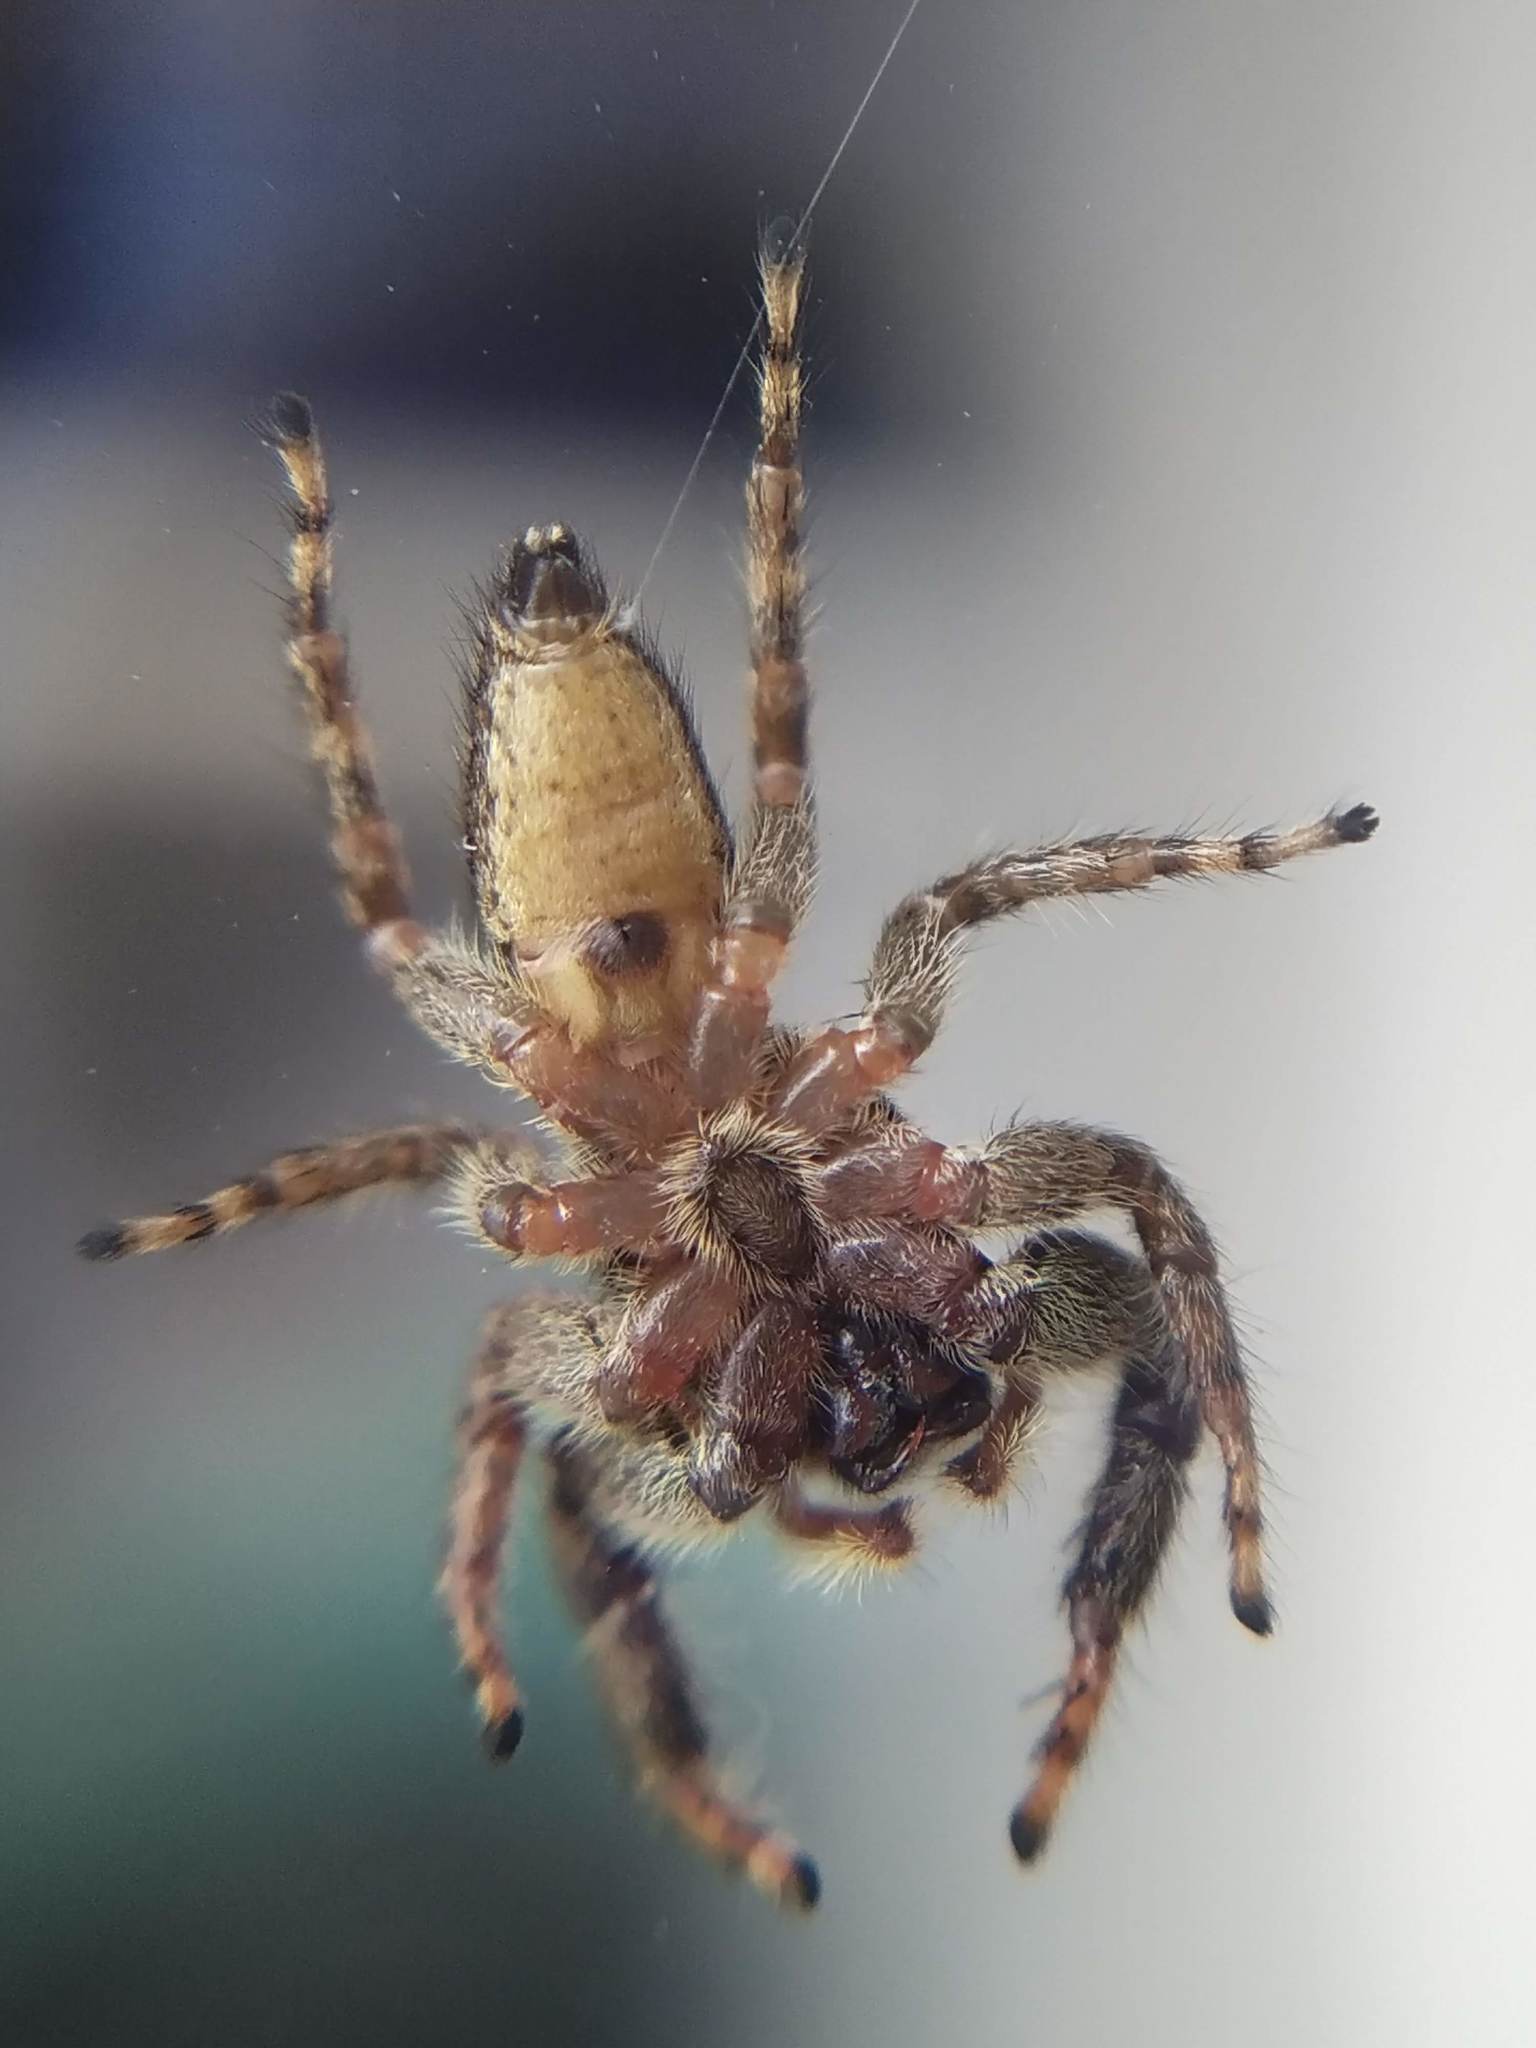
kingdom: Animalia
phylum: Arthropoda
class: Arachnida
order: Araneae
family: Salticidae
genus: Marpissa
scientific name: Marpissa muscosa
